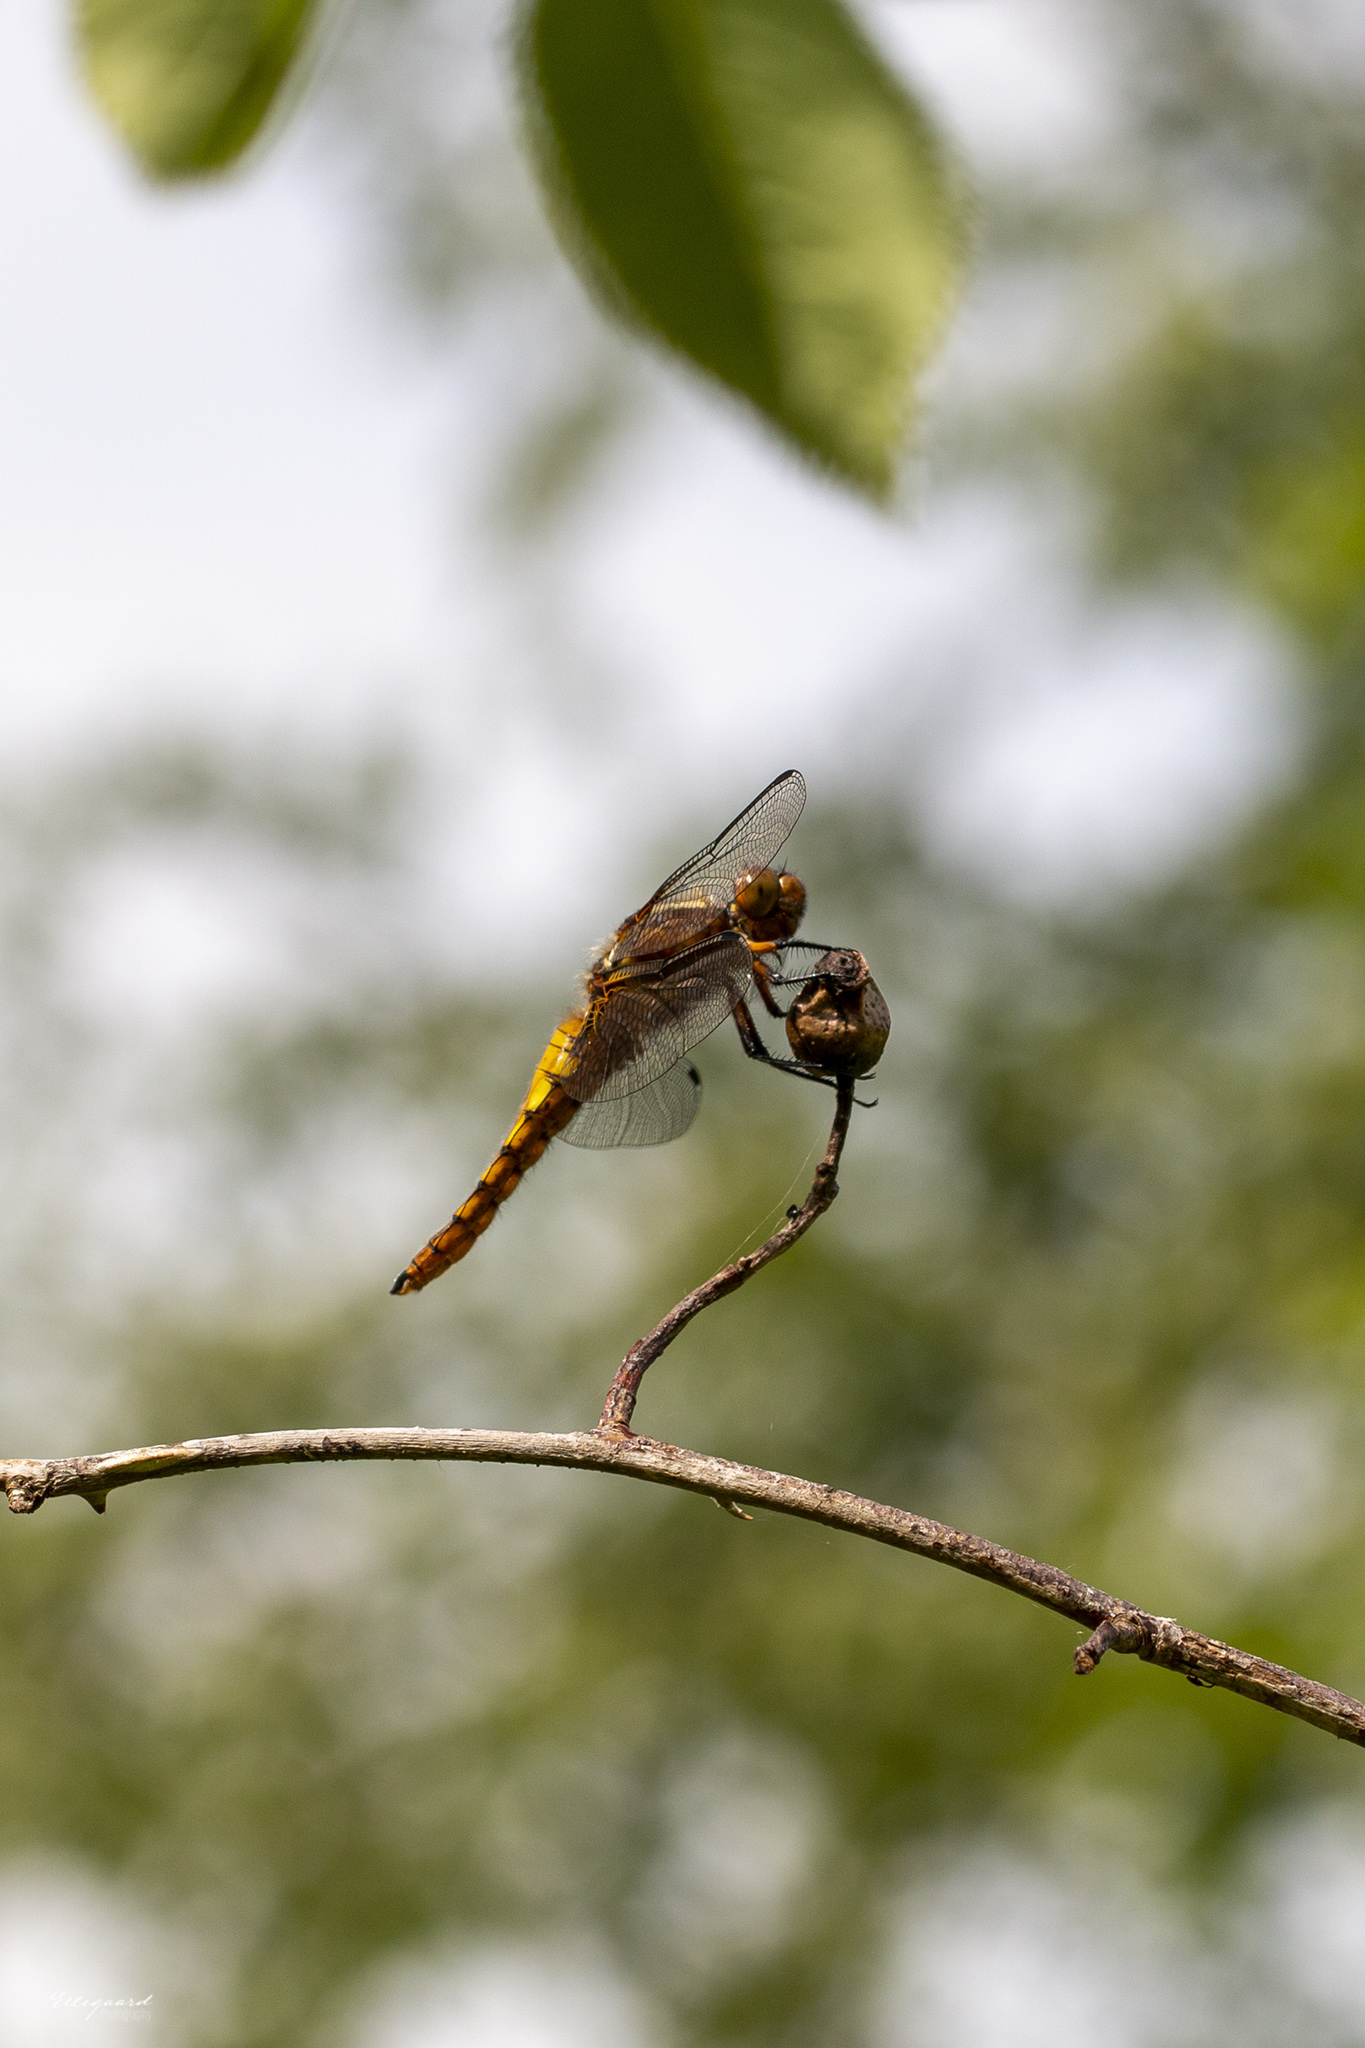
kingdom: Animalia
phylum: Arthropoda
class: Insecta
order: Odonata
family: Libellulidae
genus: Libellula
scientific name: Libellula depressa
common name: Broad-bodied chaser
